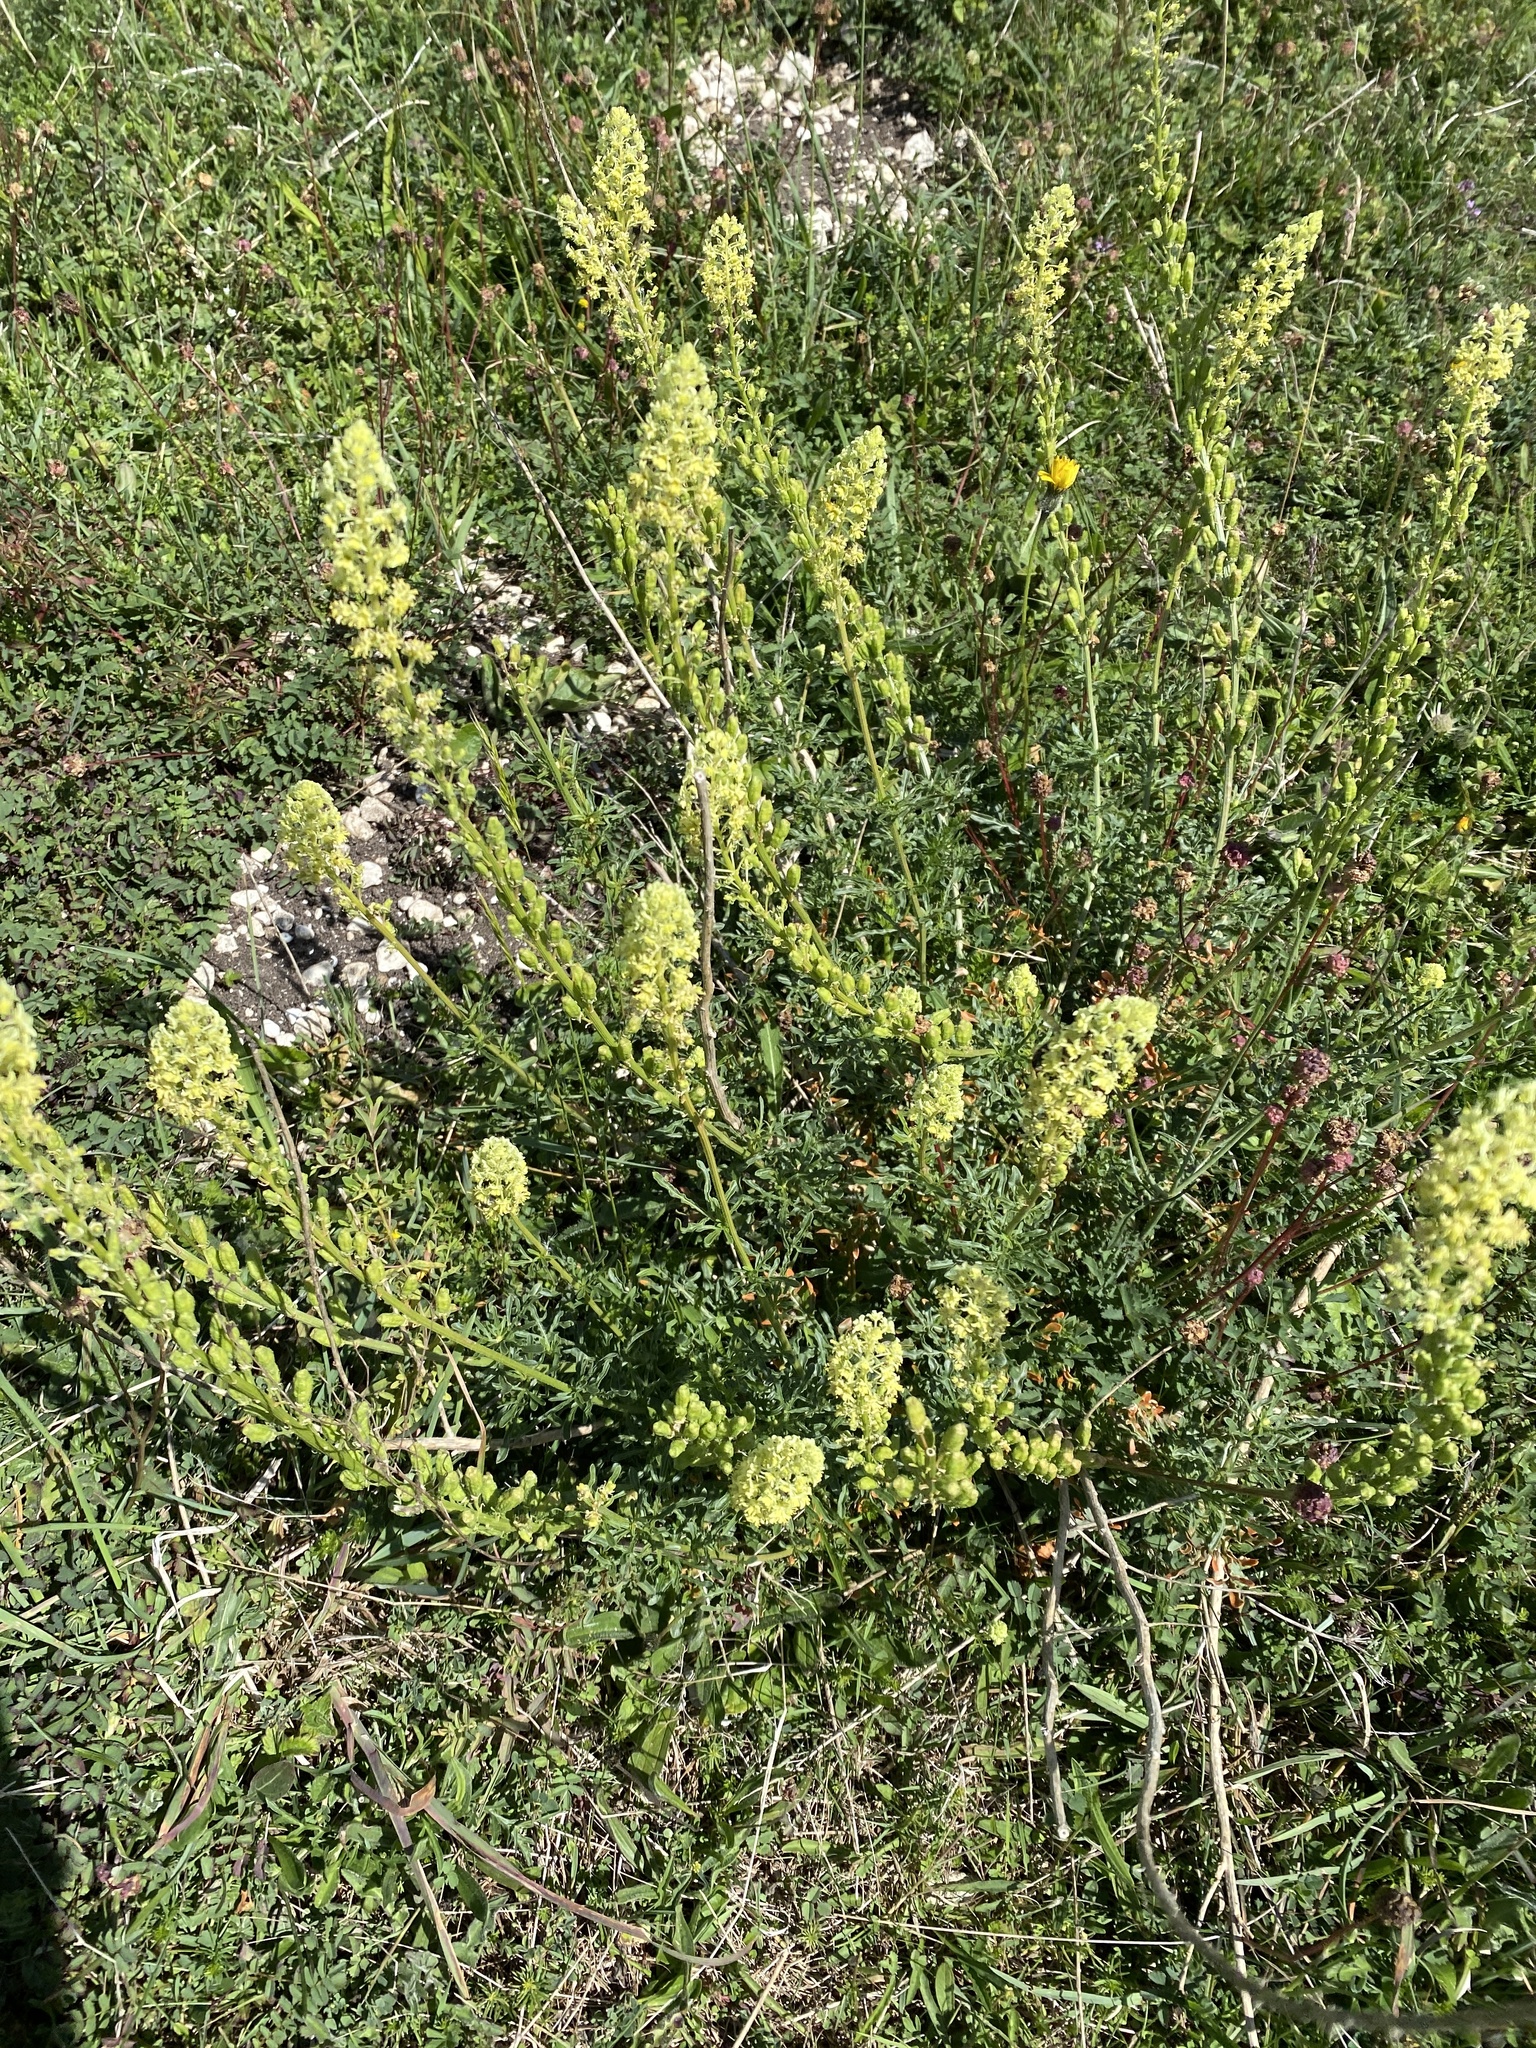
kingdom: Plantae
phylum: Tracheophyta
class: Magnoliopsida
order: Brassicales
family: Resedaceae
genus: Reseda
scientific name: Reseda lutea
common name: Wild mignonette
